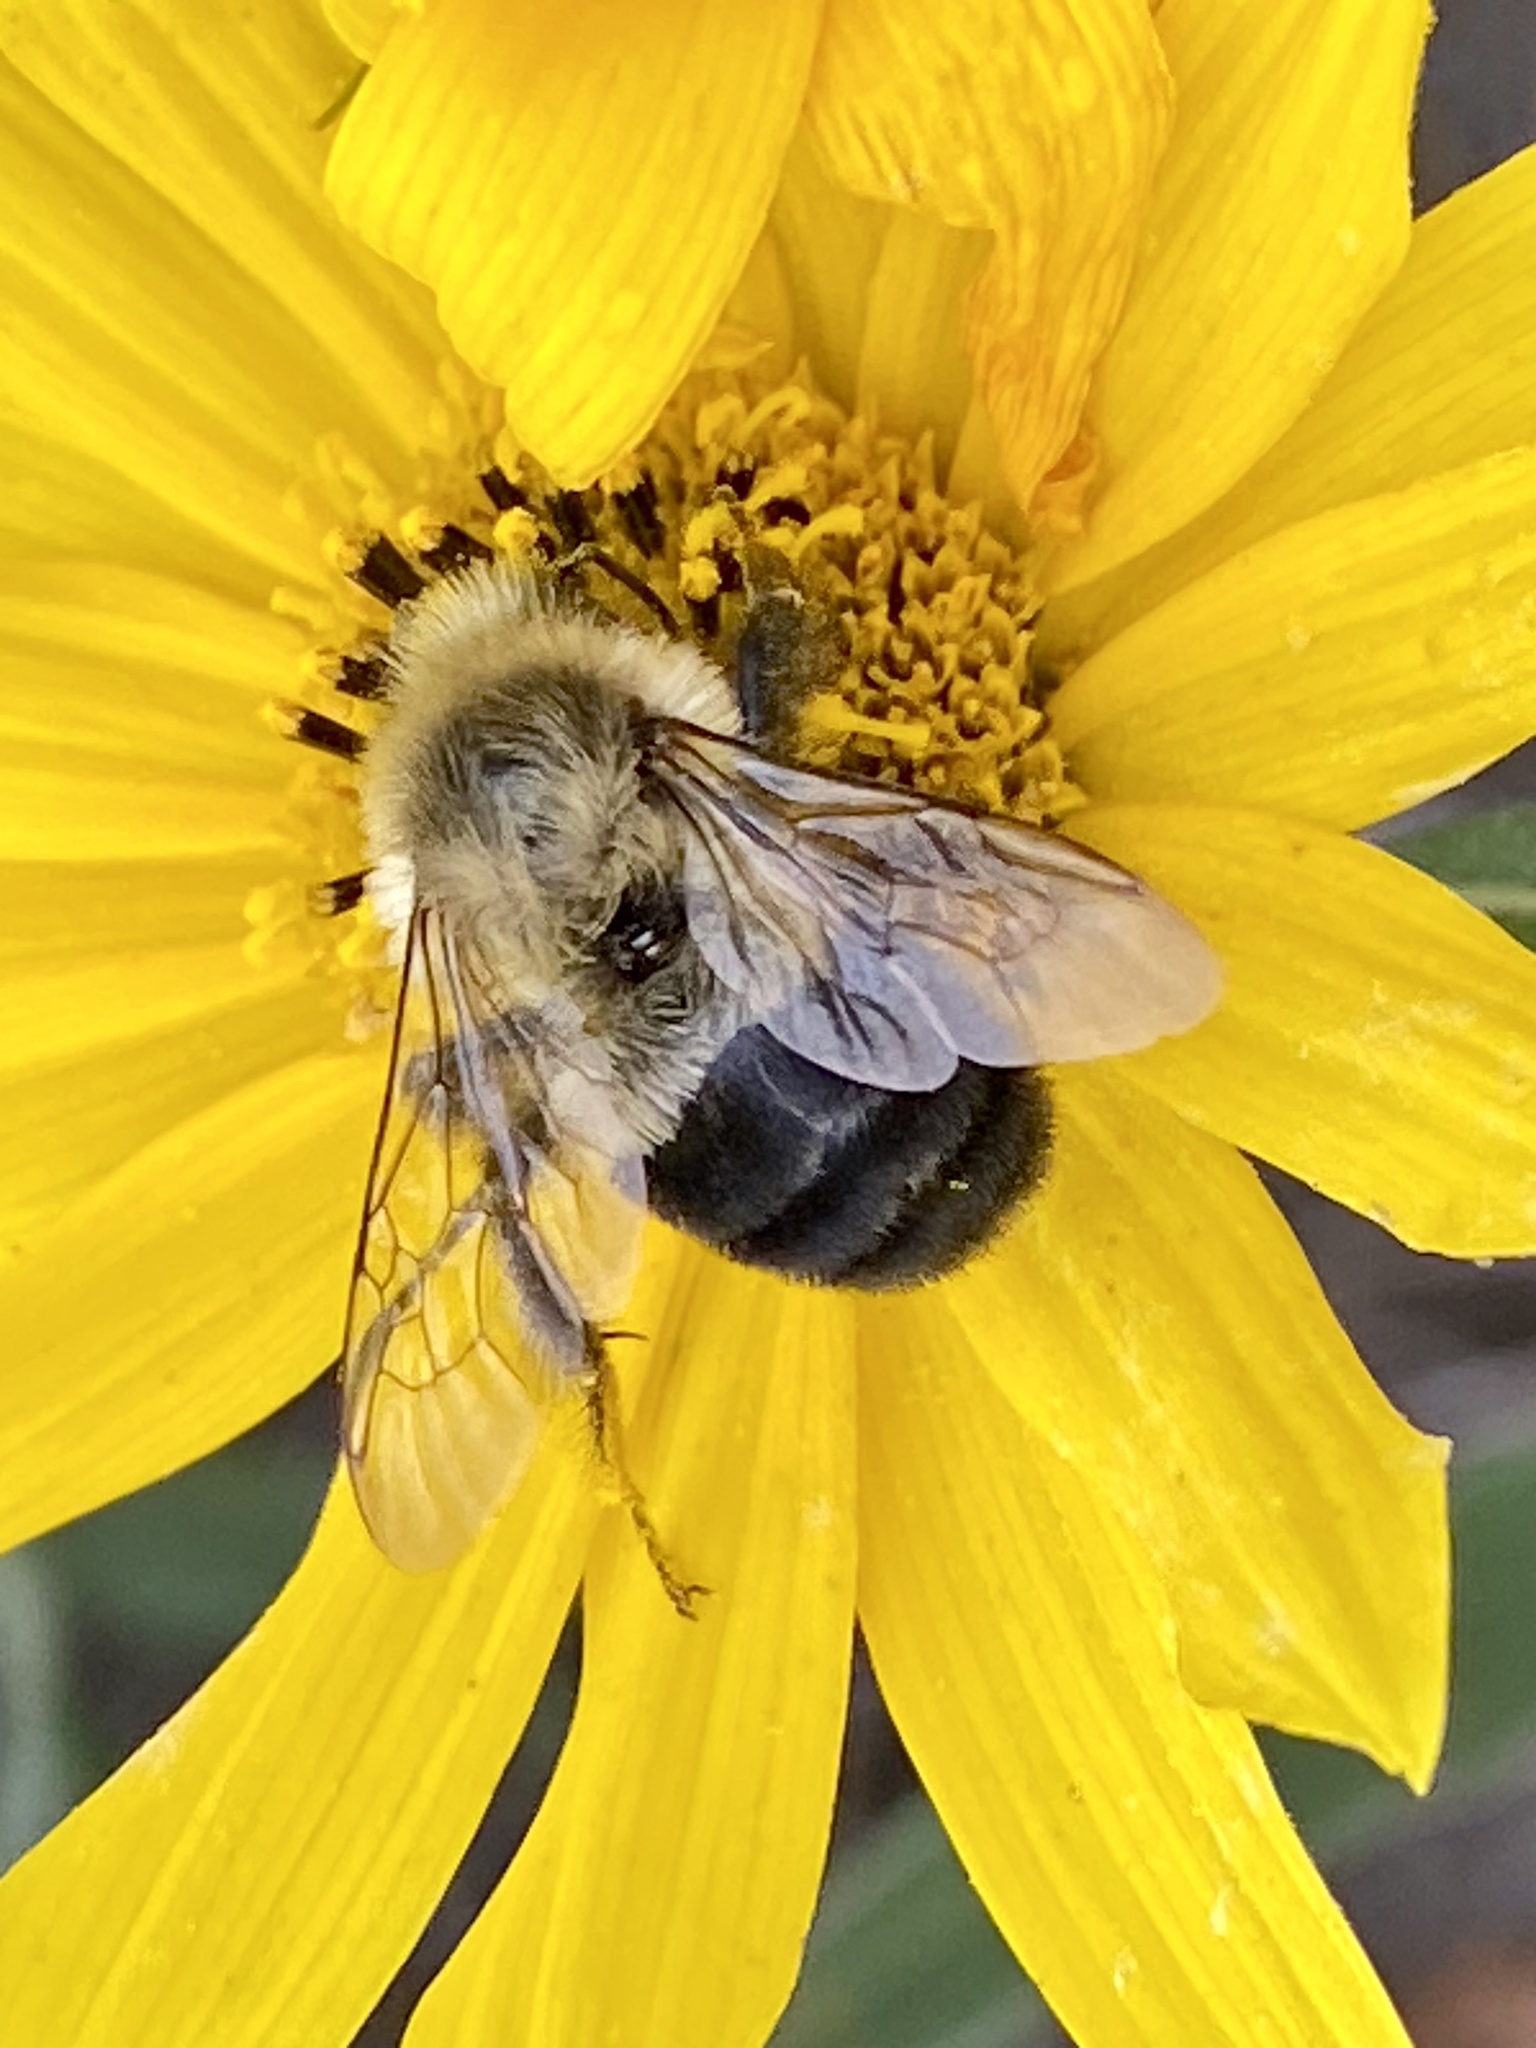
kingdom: Animalia
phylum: Arthropoda
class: Insecta
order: Hymenoptera
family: Apidae
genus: Bombus
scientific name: Bombus impatiens
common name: Common eastern bumble bee
